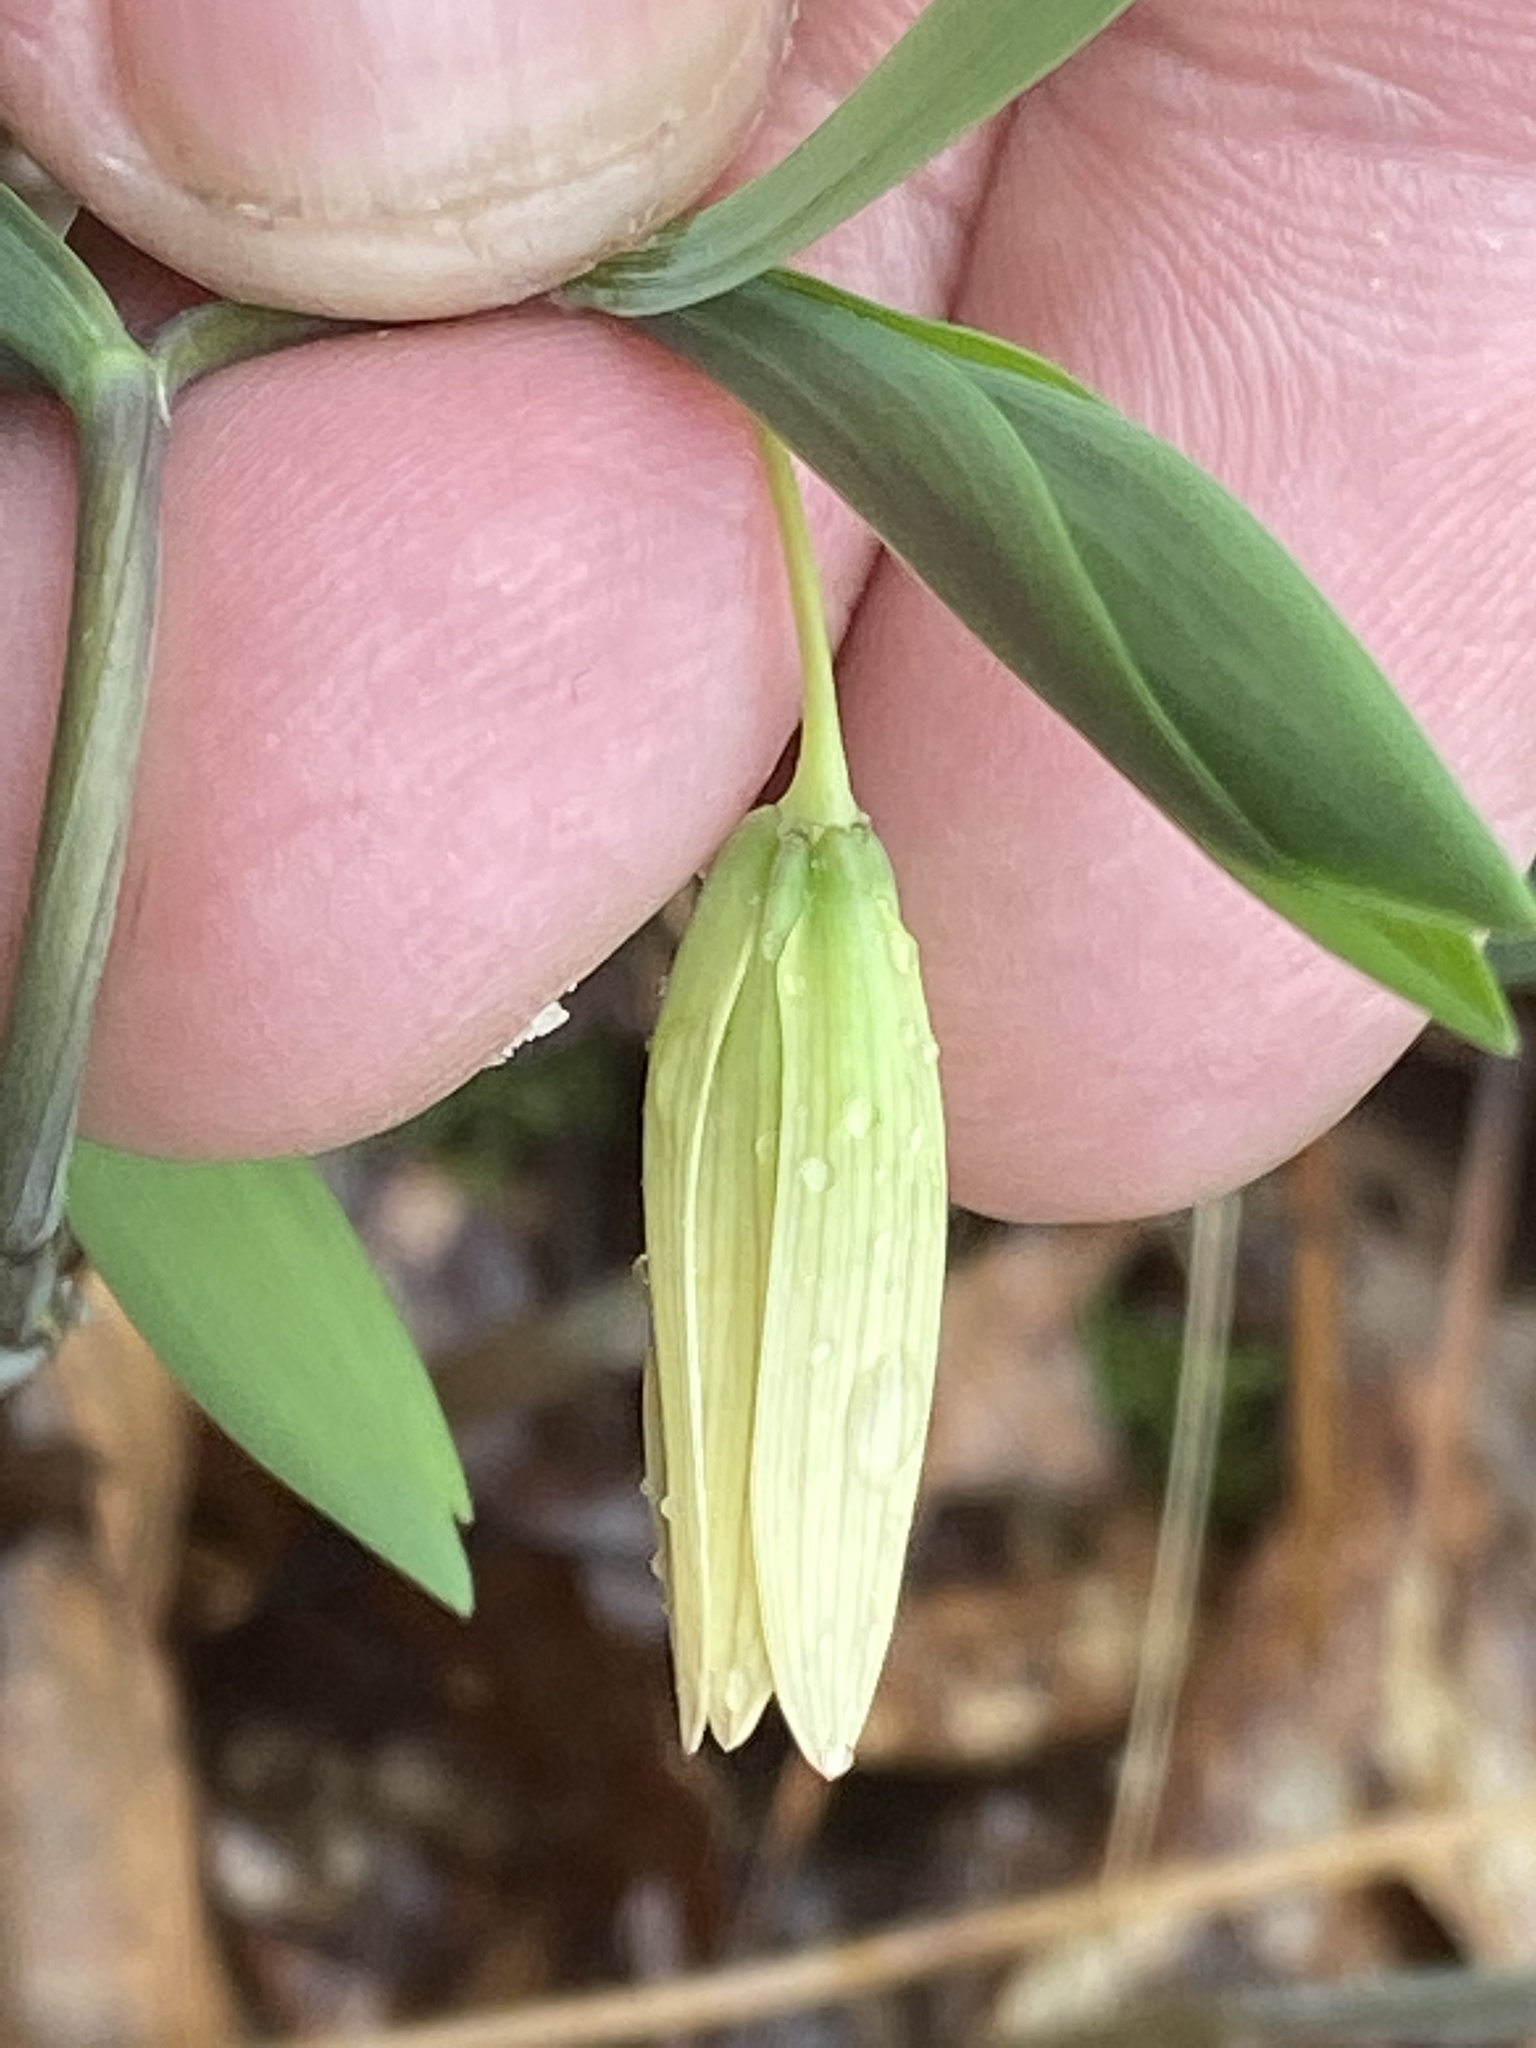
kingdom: Plantae
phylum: Tracheophyta
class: Liliopsida
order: Liliales
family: Colchicaceae
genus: Uvularia
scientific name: Uvularia sessilifolia
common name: Straw-lily
